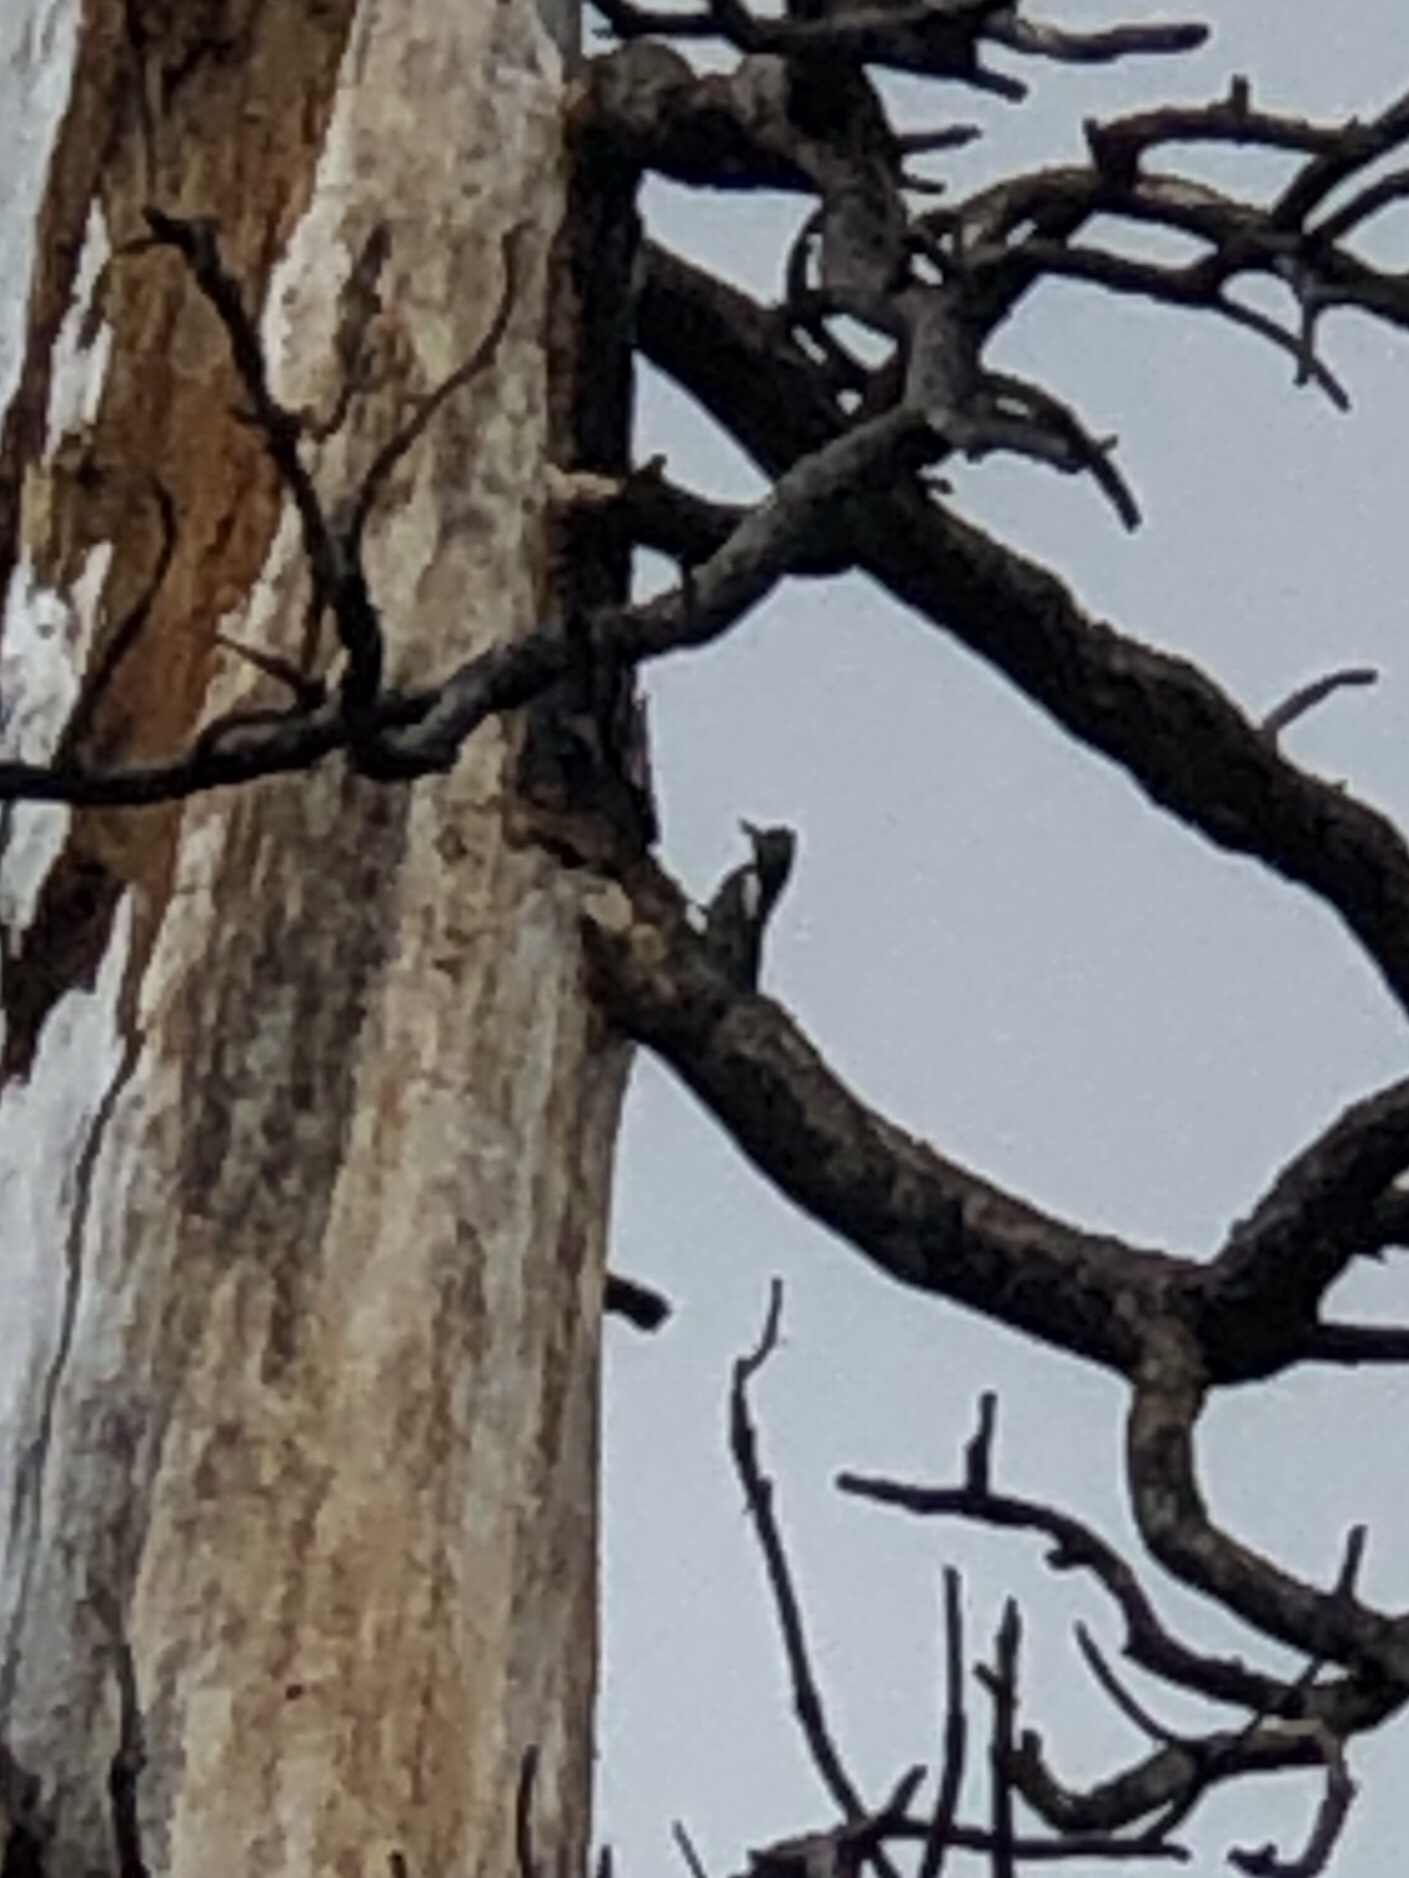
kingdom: Animalia
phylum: Chordata
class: Aves
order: Piciformes
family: Picidae
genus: Sphyrapicus
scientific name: Sphyrapicus thyroideus
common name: Williamson's sapsucker
